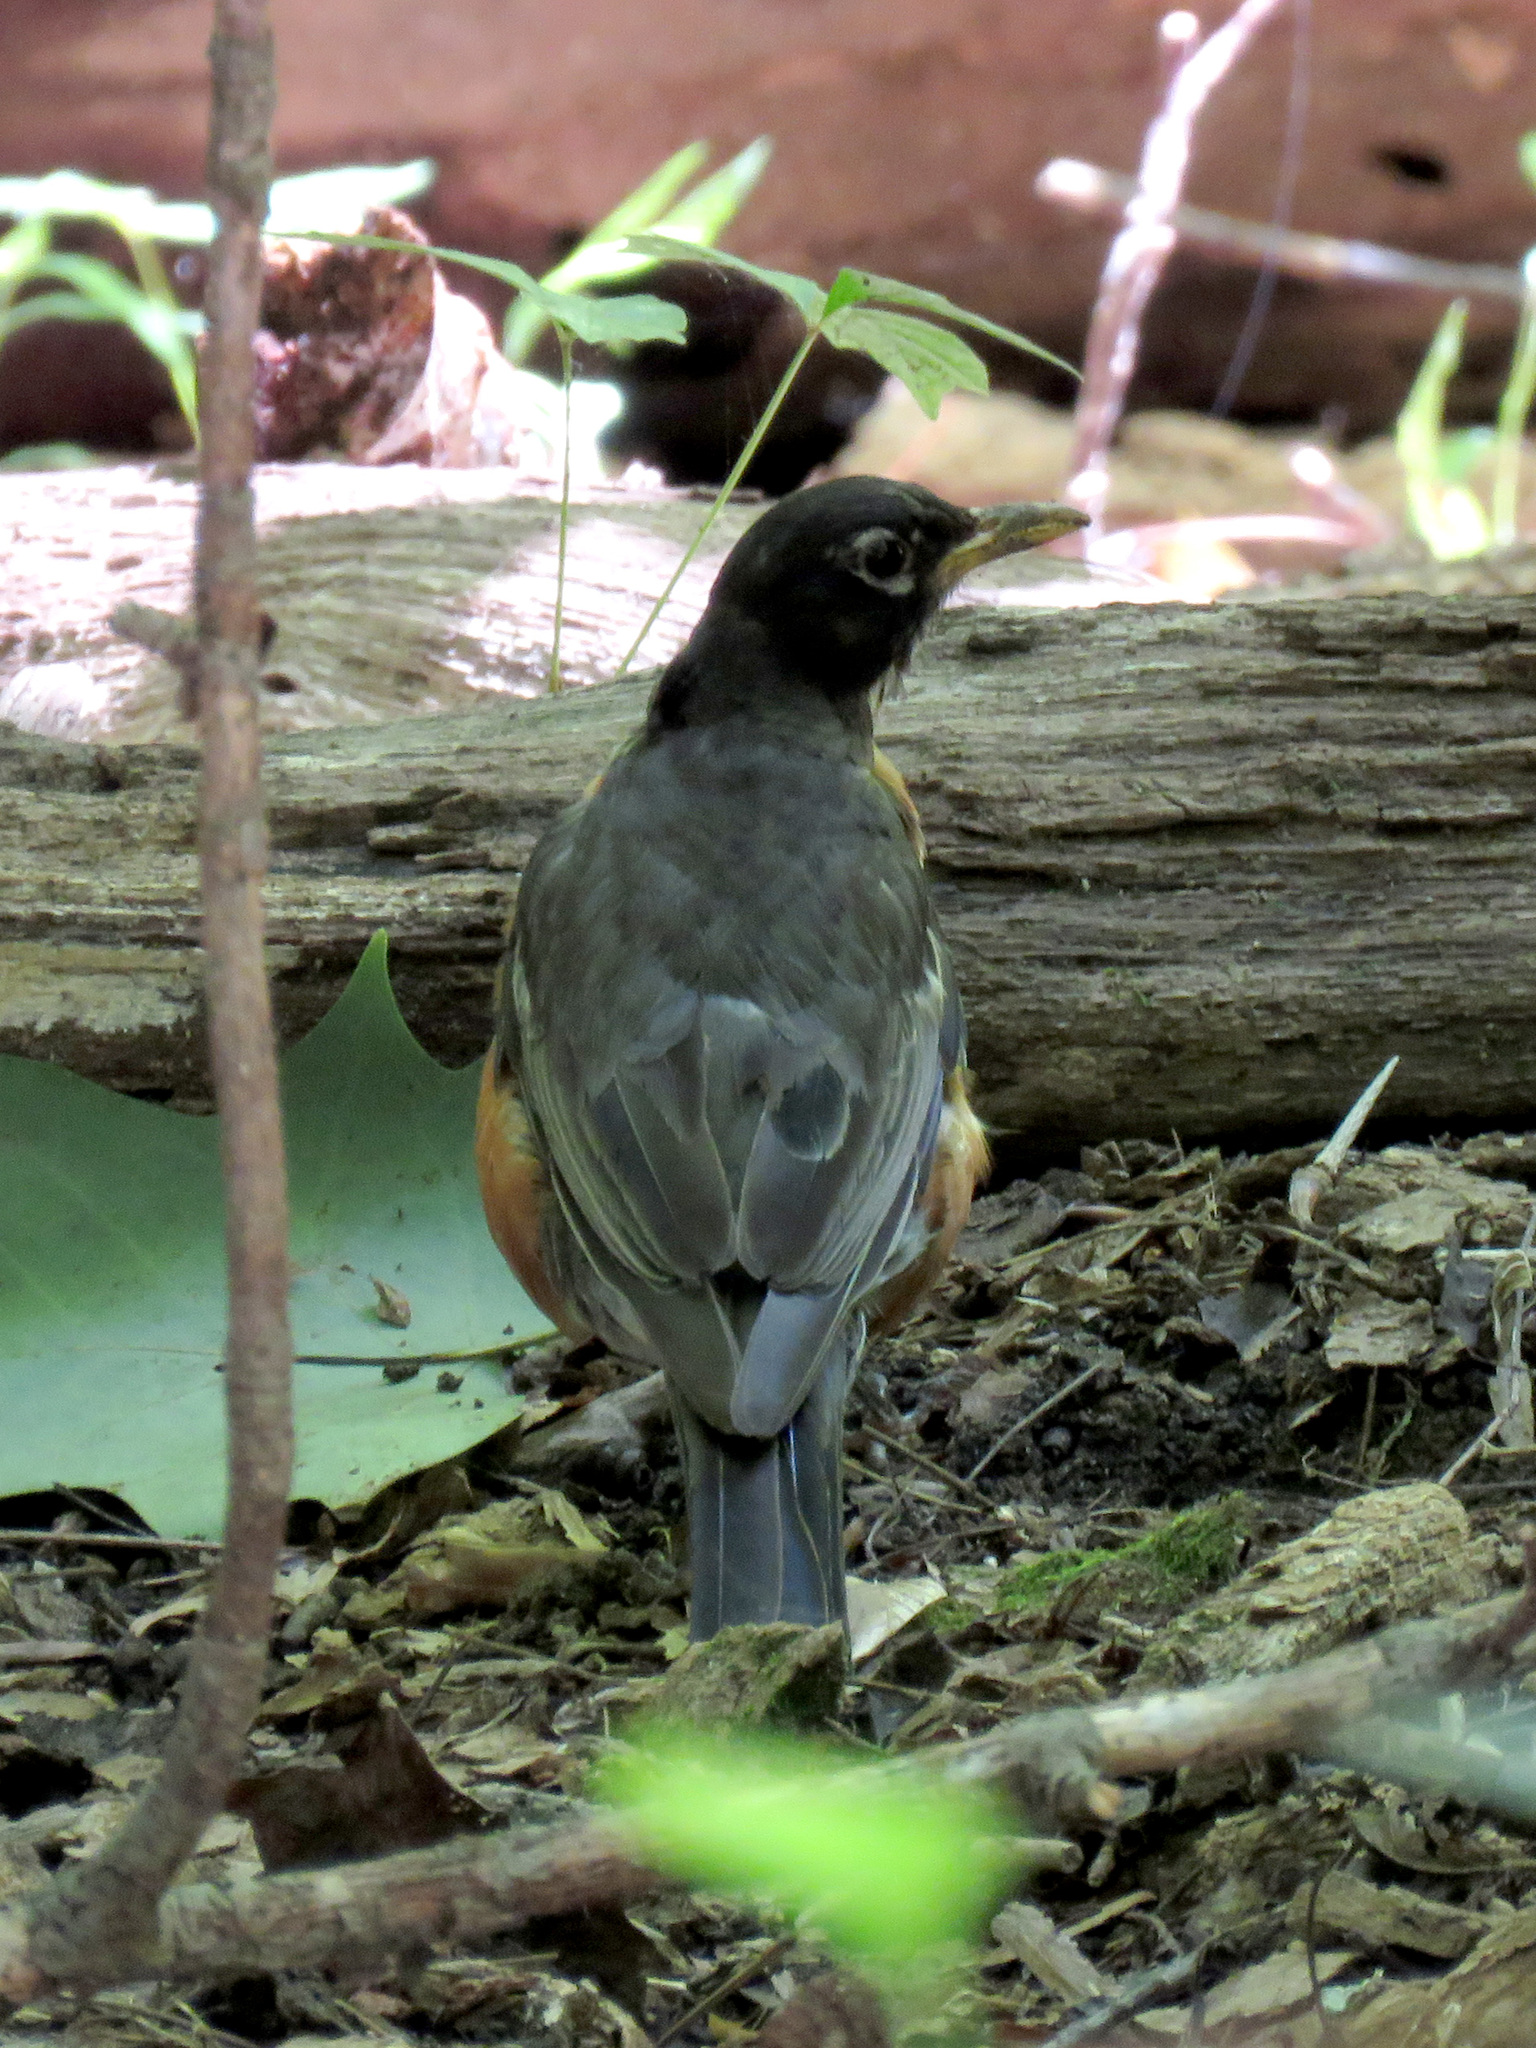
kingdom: Animalia
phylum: Chordata
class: Aves
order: Passeriformes
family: Turdidae
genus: Turdus
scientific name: Turdus migratorius
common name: American robin
